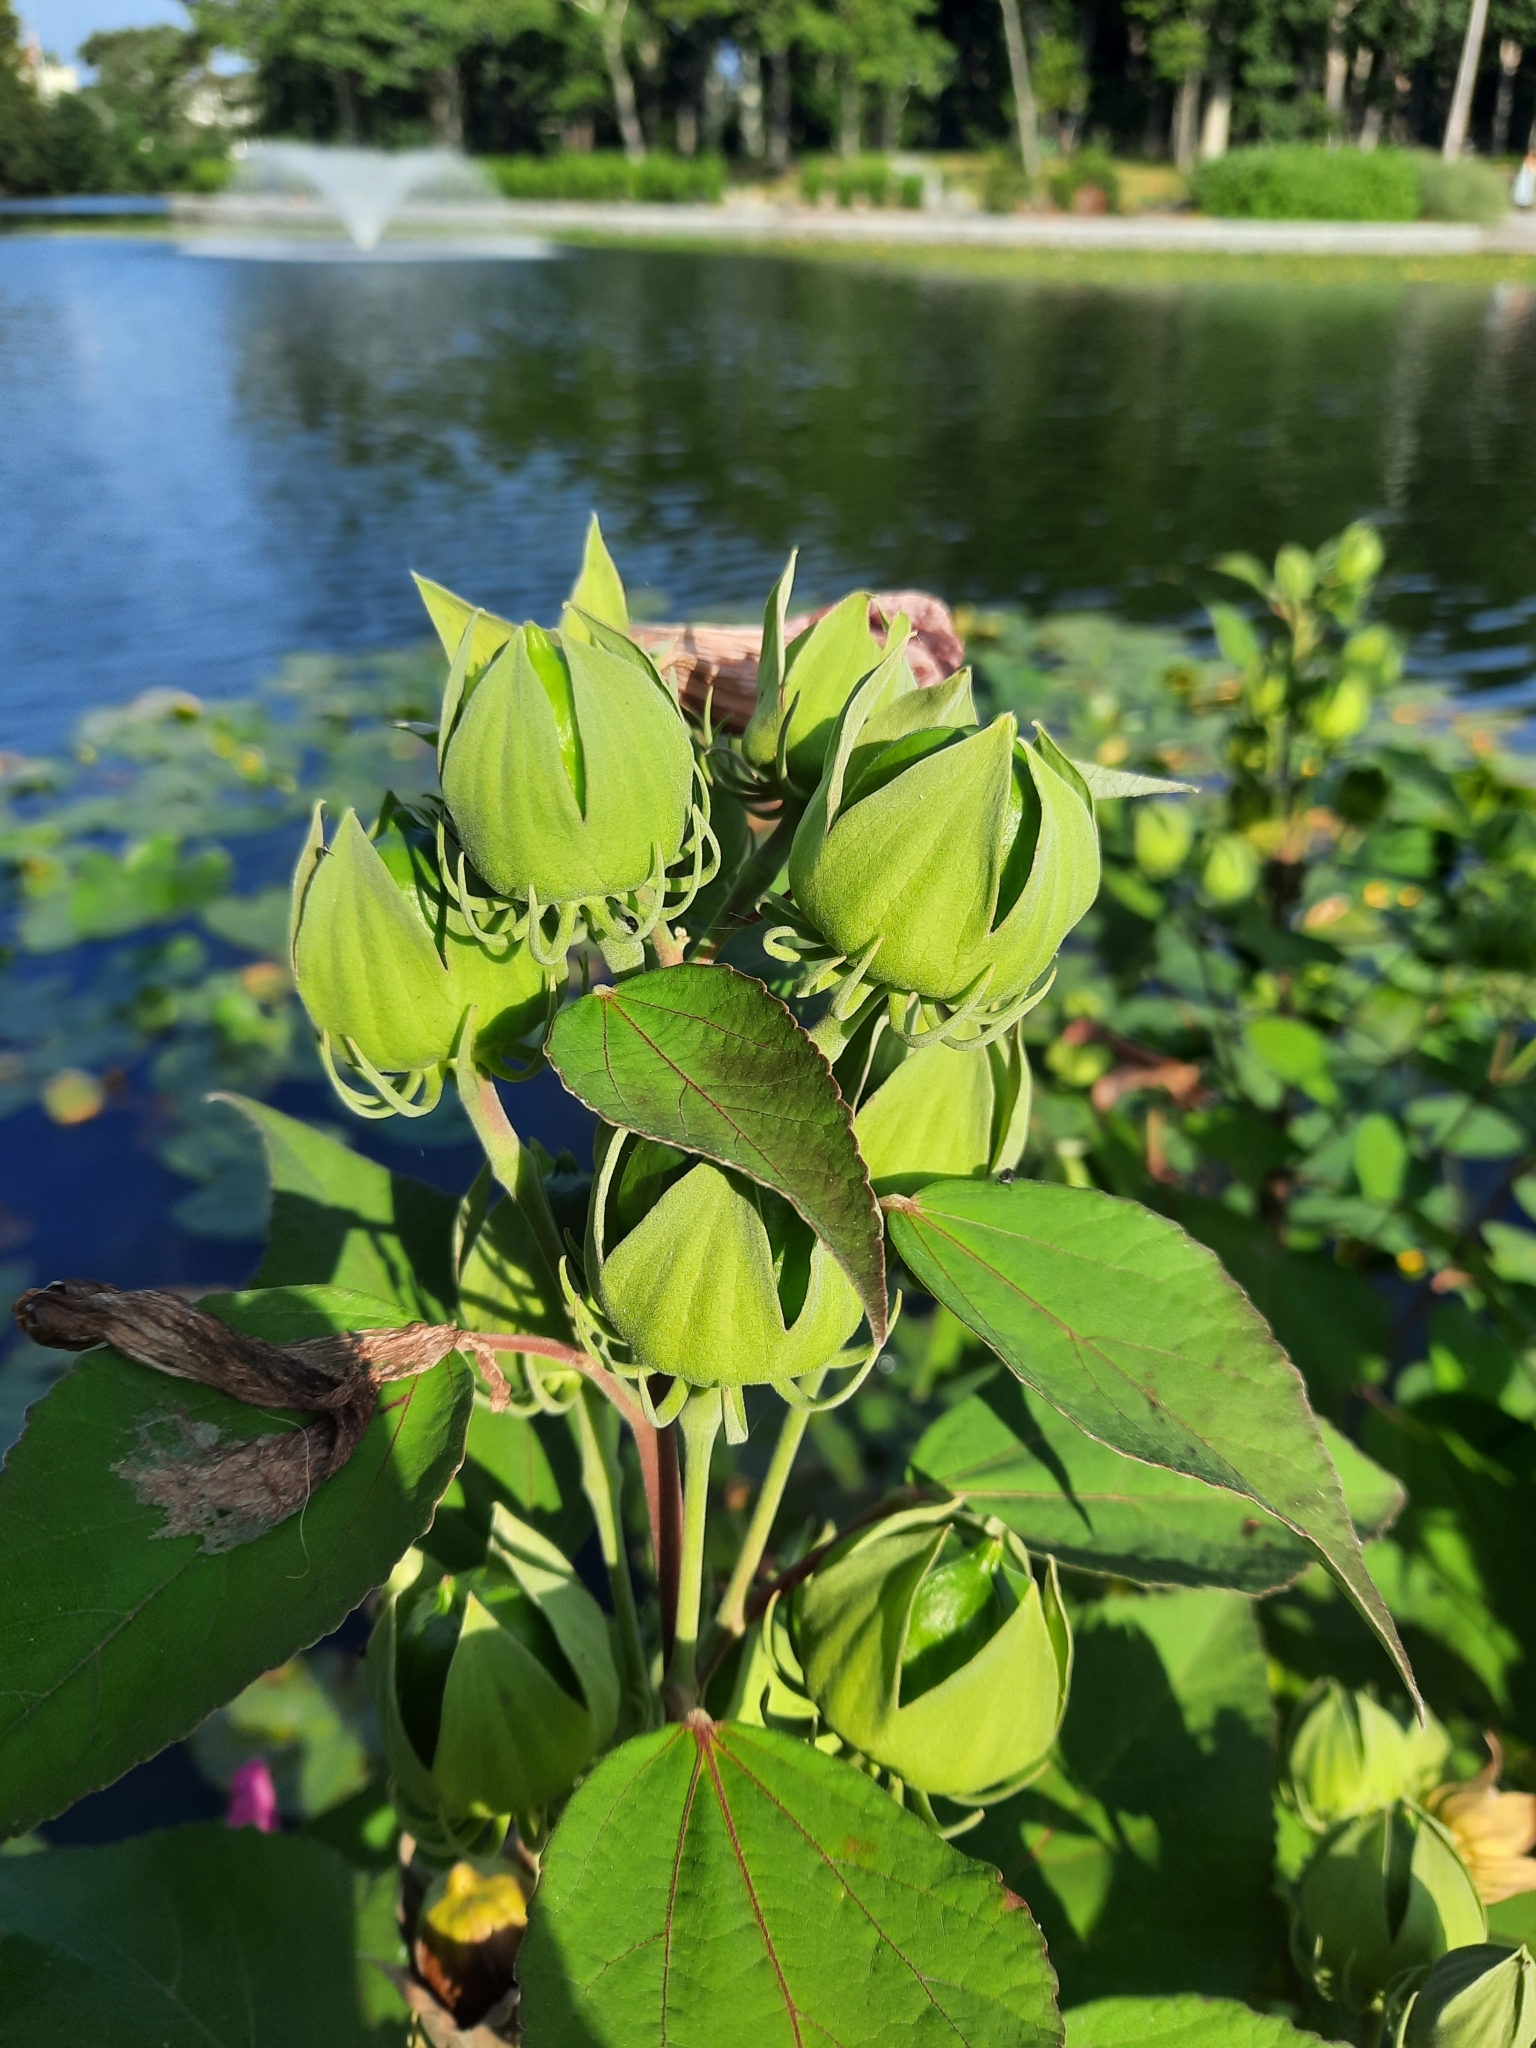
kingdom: Plantae
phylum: Tracheophyta
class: Magnoliopsida
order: Malvales
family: Malvaceae
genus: Hibiscus
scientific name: Hibiscus moscheutos
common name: Common rose-mallow
